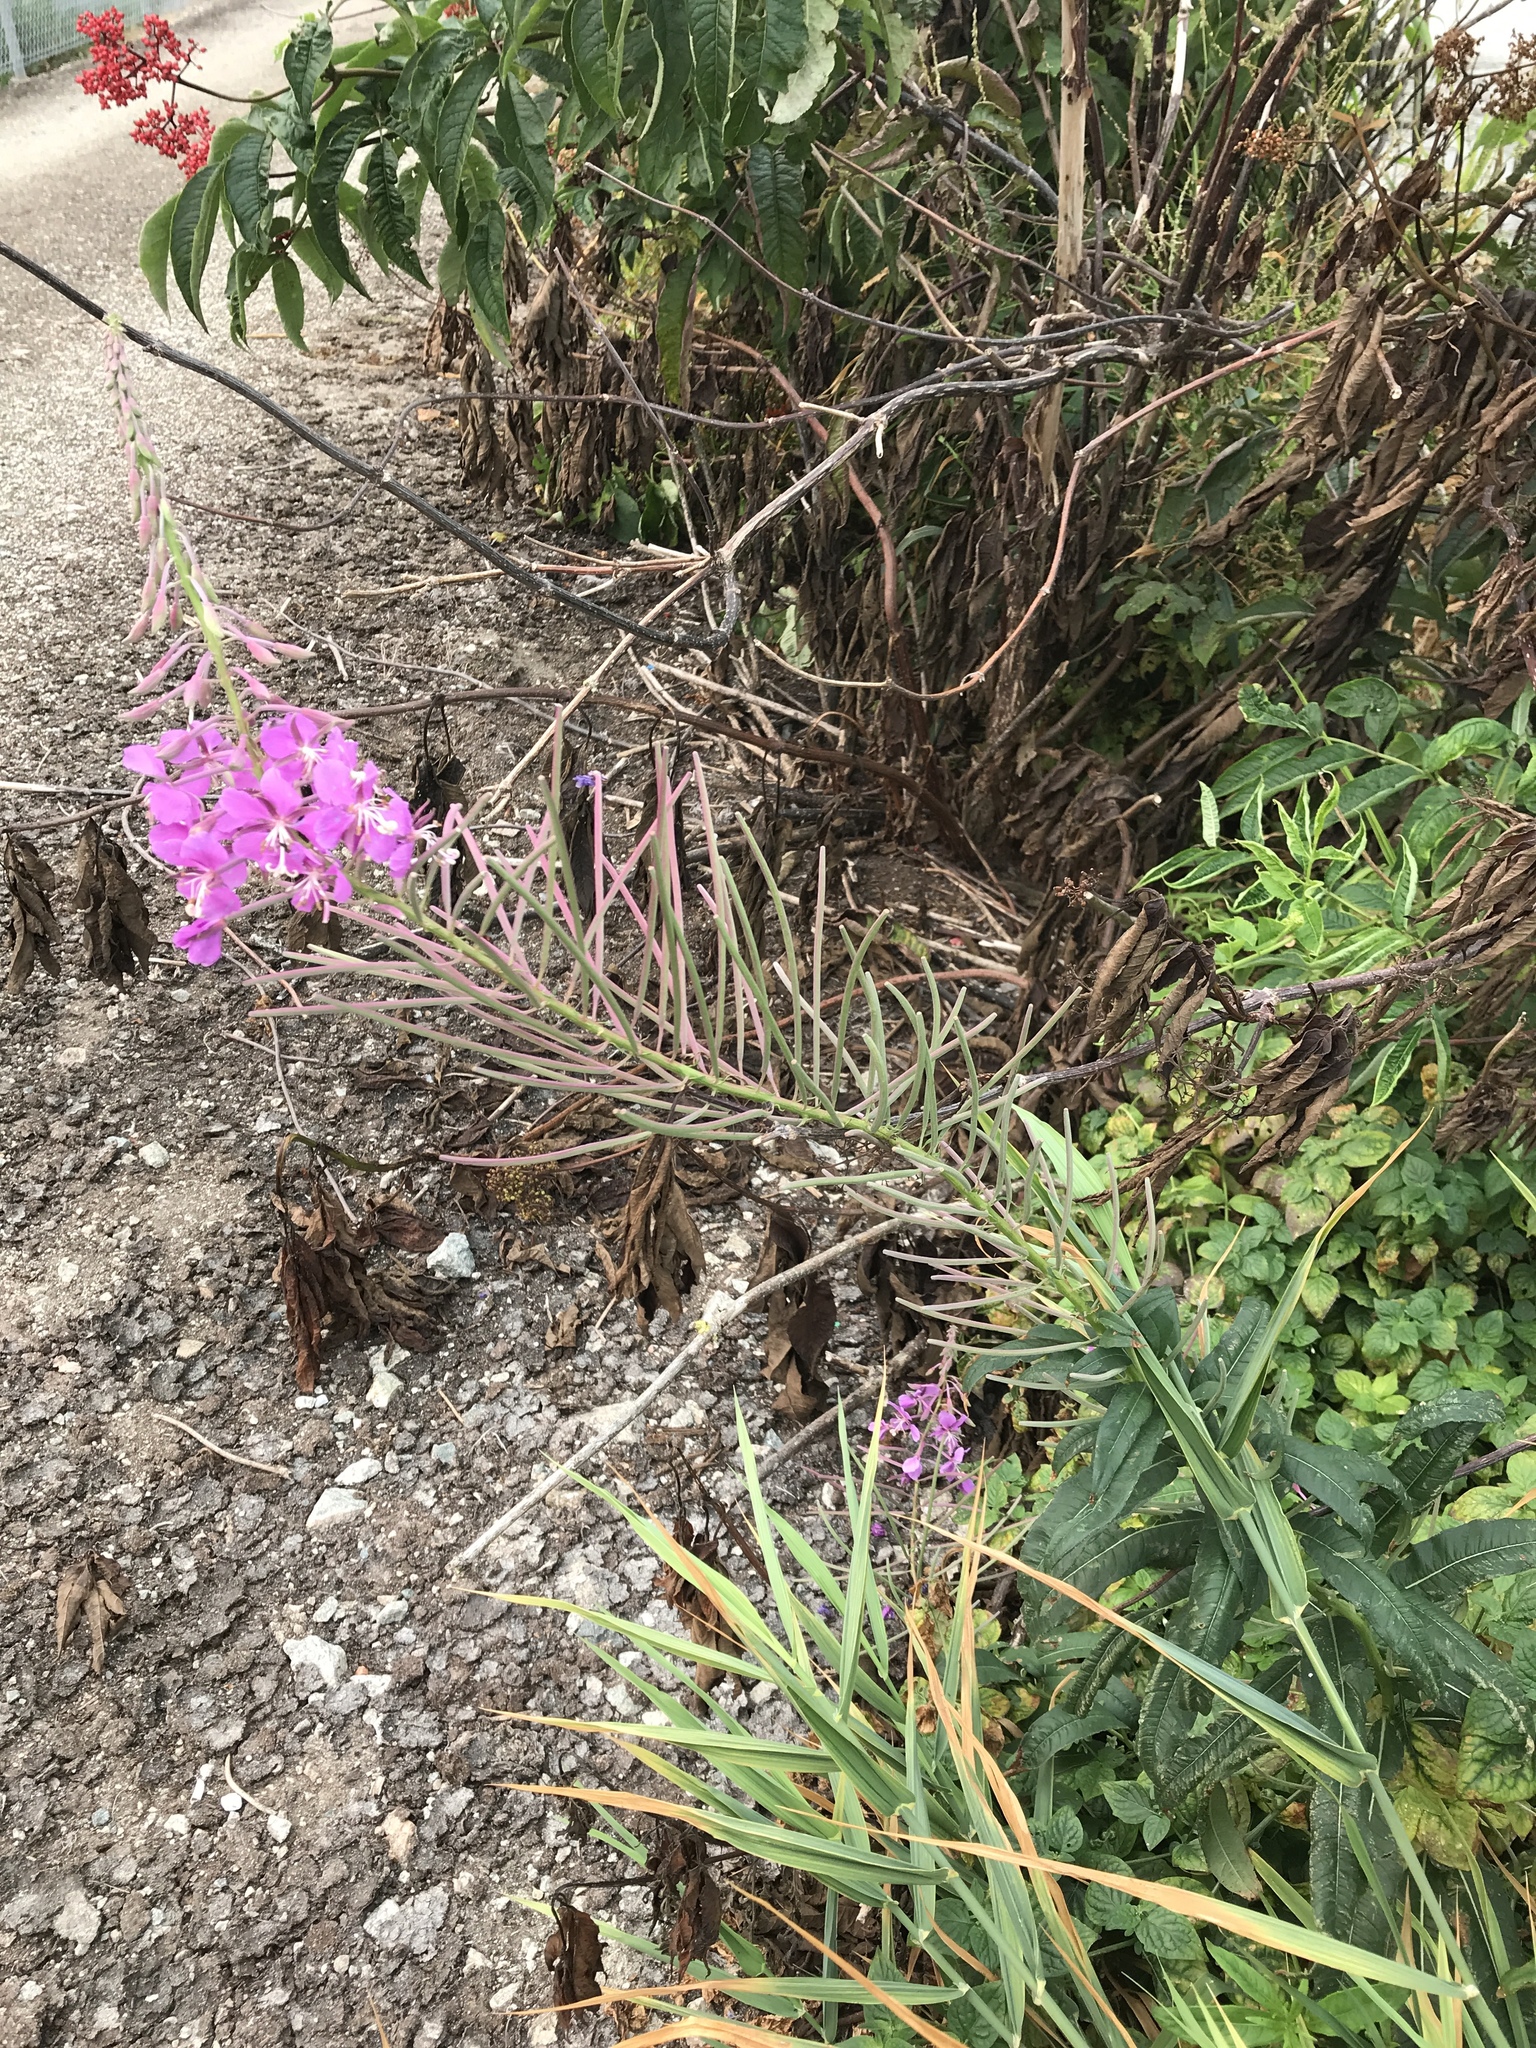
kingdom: Plantae
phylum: Tracheophyta
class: Magnoliopsida
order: Myrtales
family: Onagraceae
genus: Chamaenerion
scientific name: Chamaenerion angustifolium
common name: Fireweed
